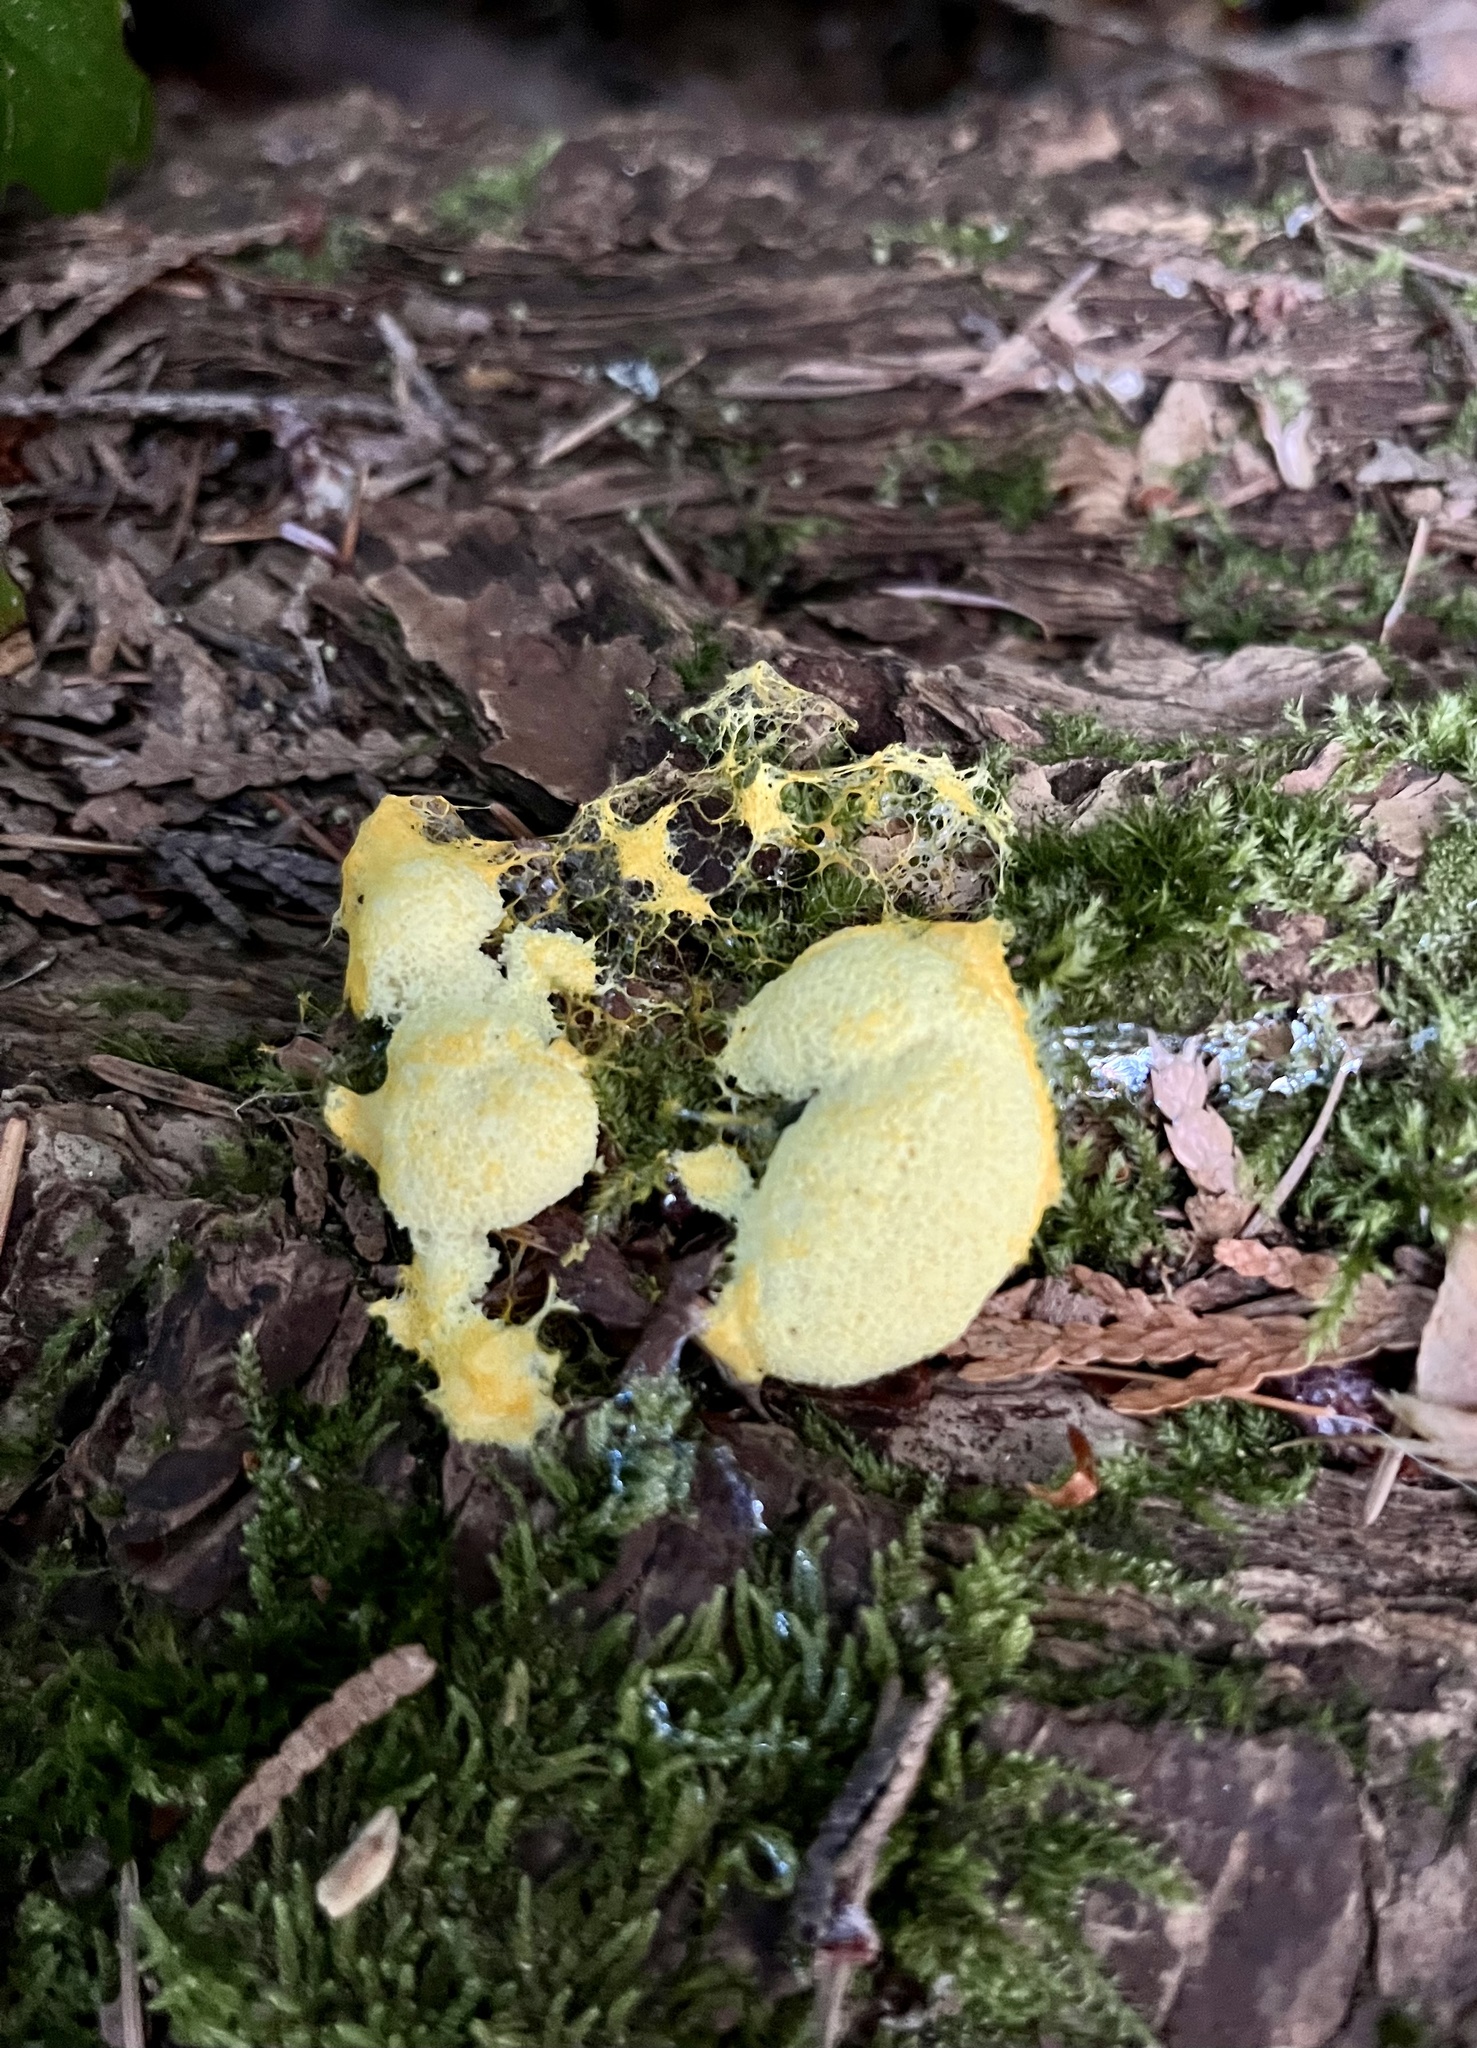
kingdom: Protozoa
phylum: Mycetozoa
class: Myxomycetes
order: Physarales
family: Physaraceae
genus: Fuligo
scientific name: Fuligo septica
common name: Dog vomit slime mold
